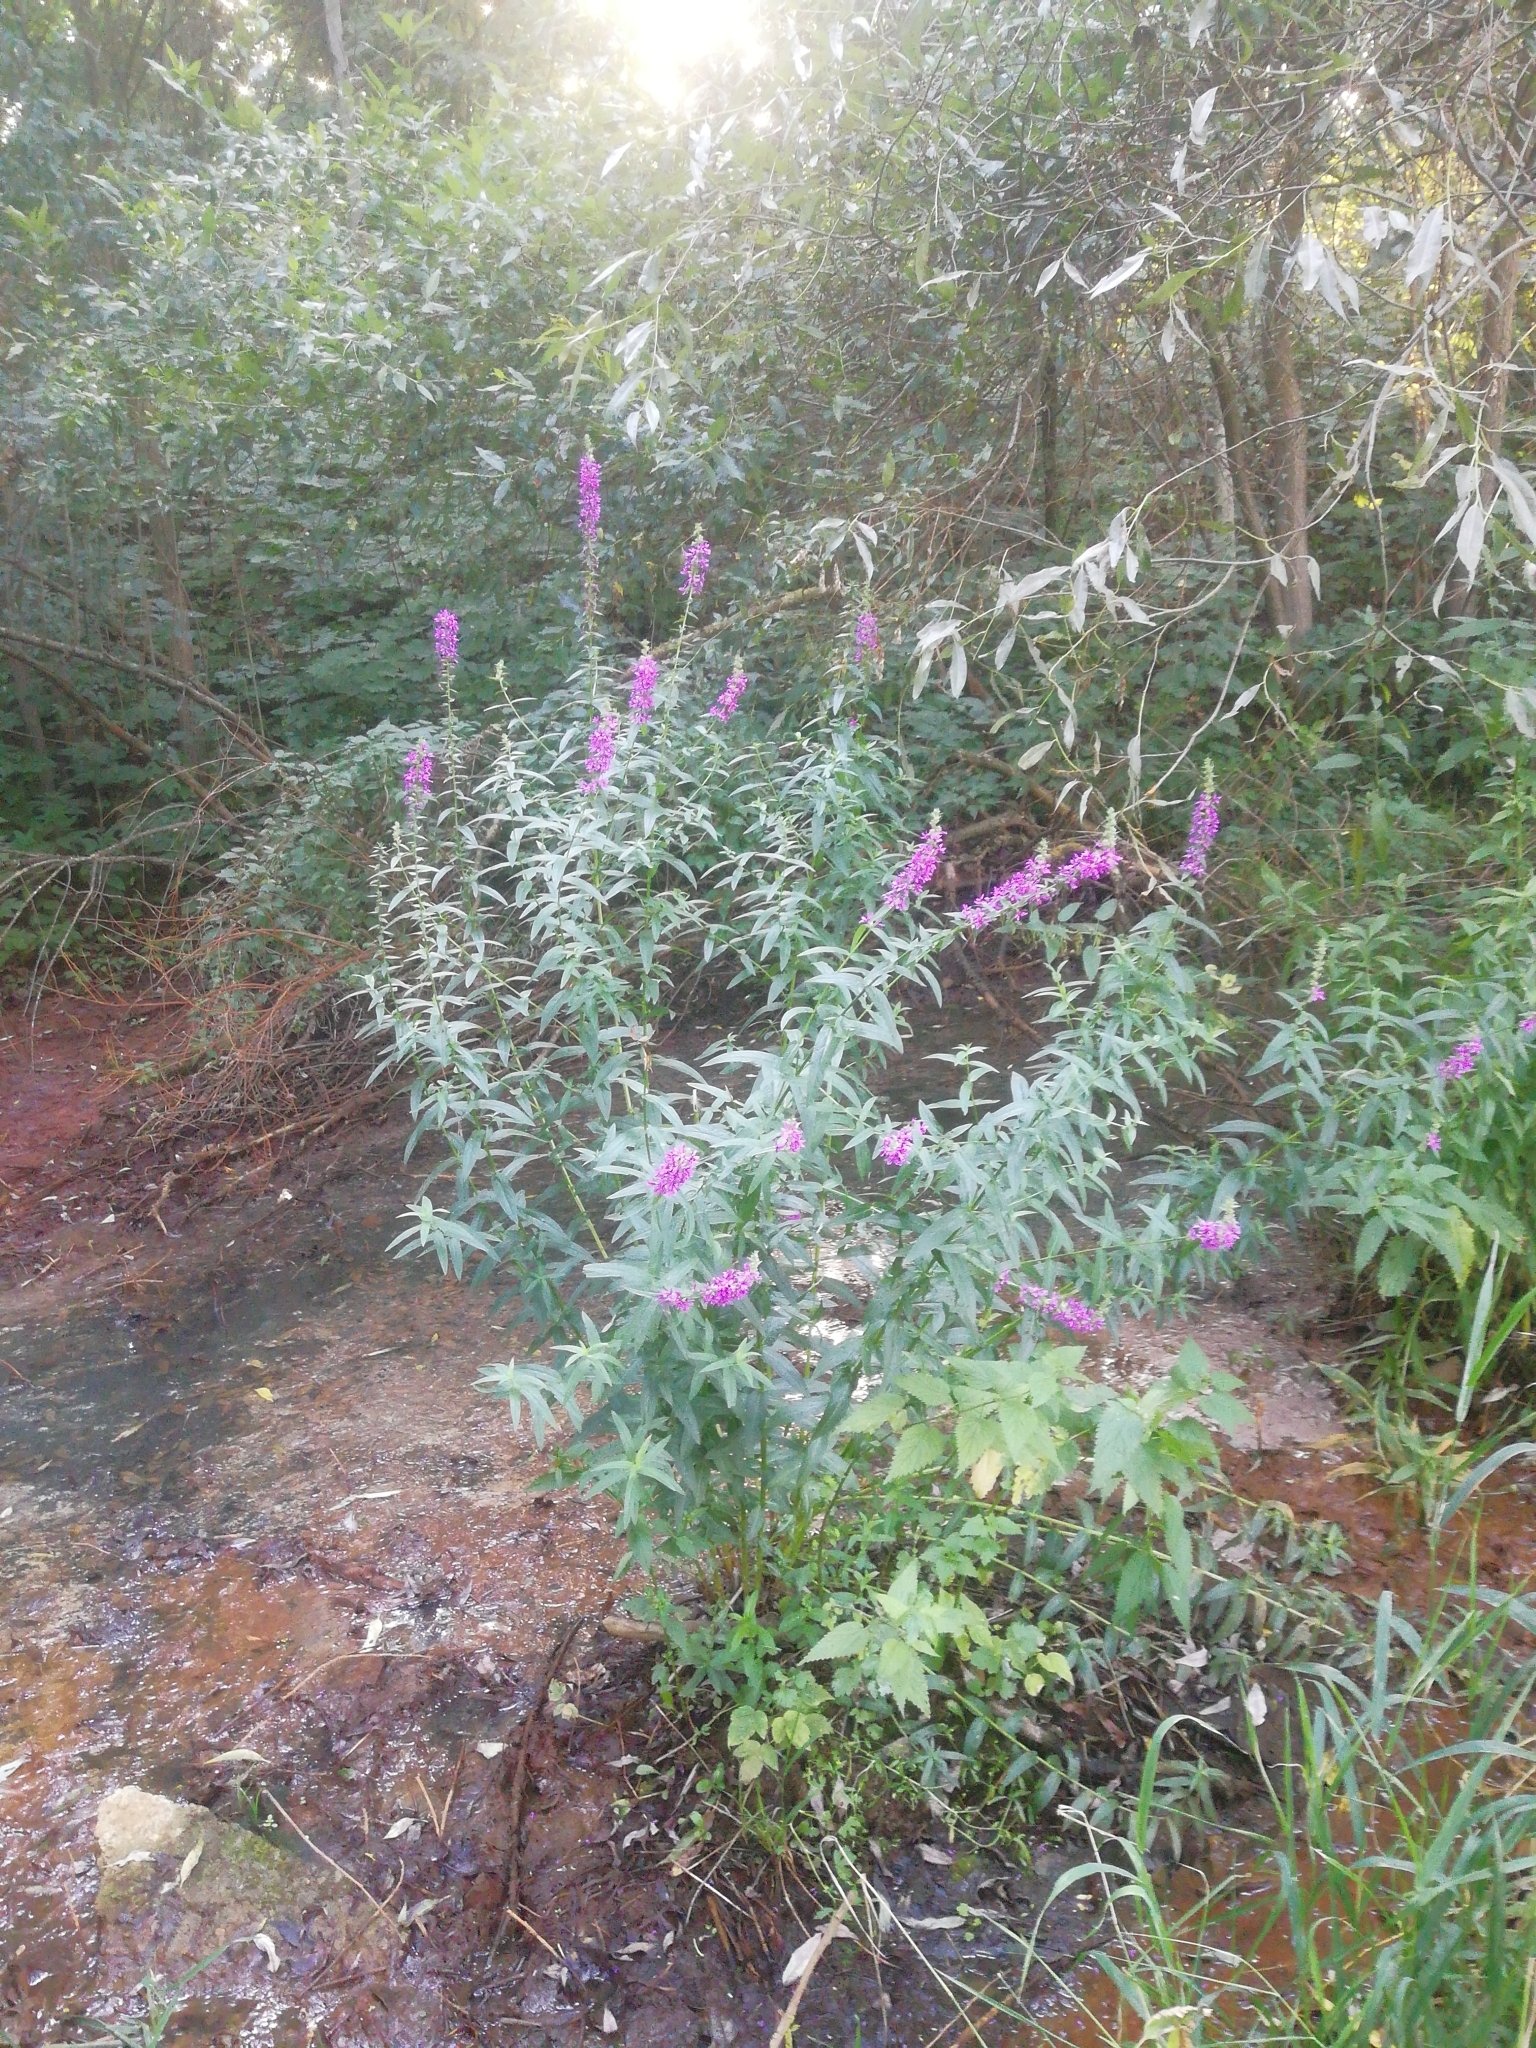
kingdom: Plantae
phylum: Tracheophyta
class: Magnoliopsida
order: Myrtales
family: Lythraceae
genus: Lythrum
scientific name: Lythrum salicaria
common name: Purple loosestrife
